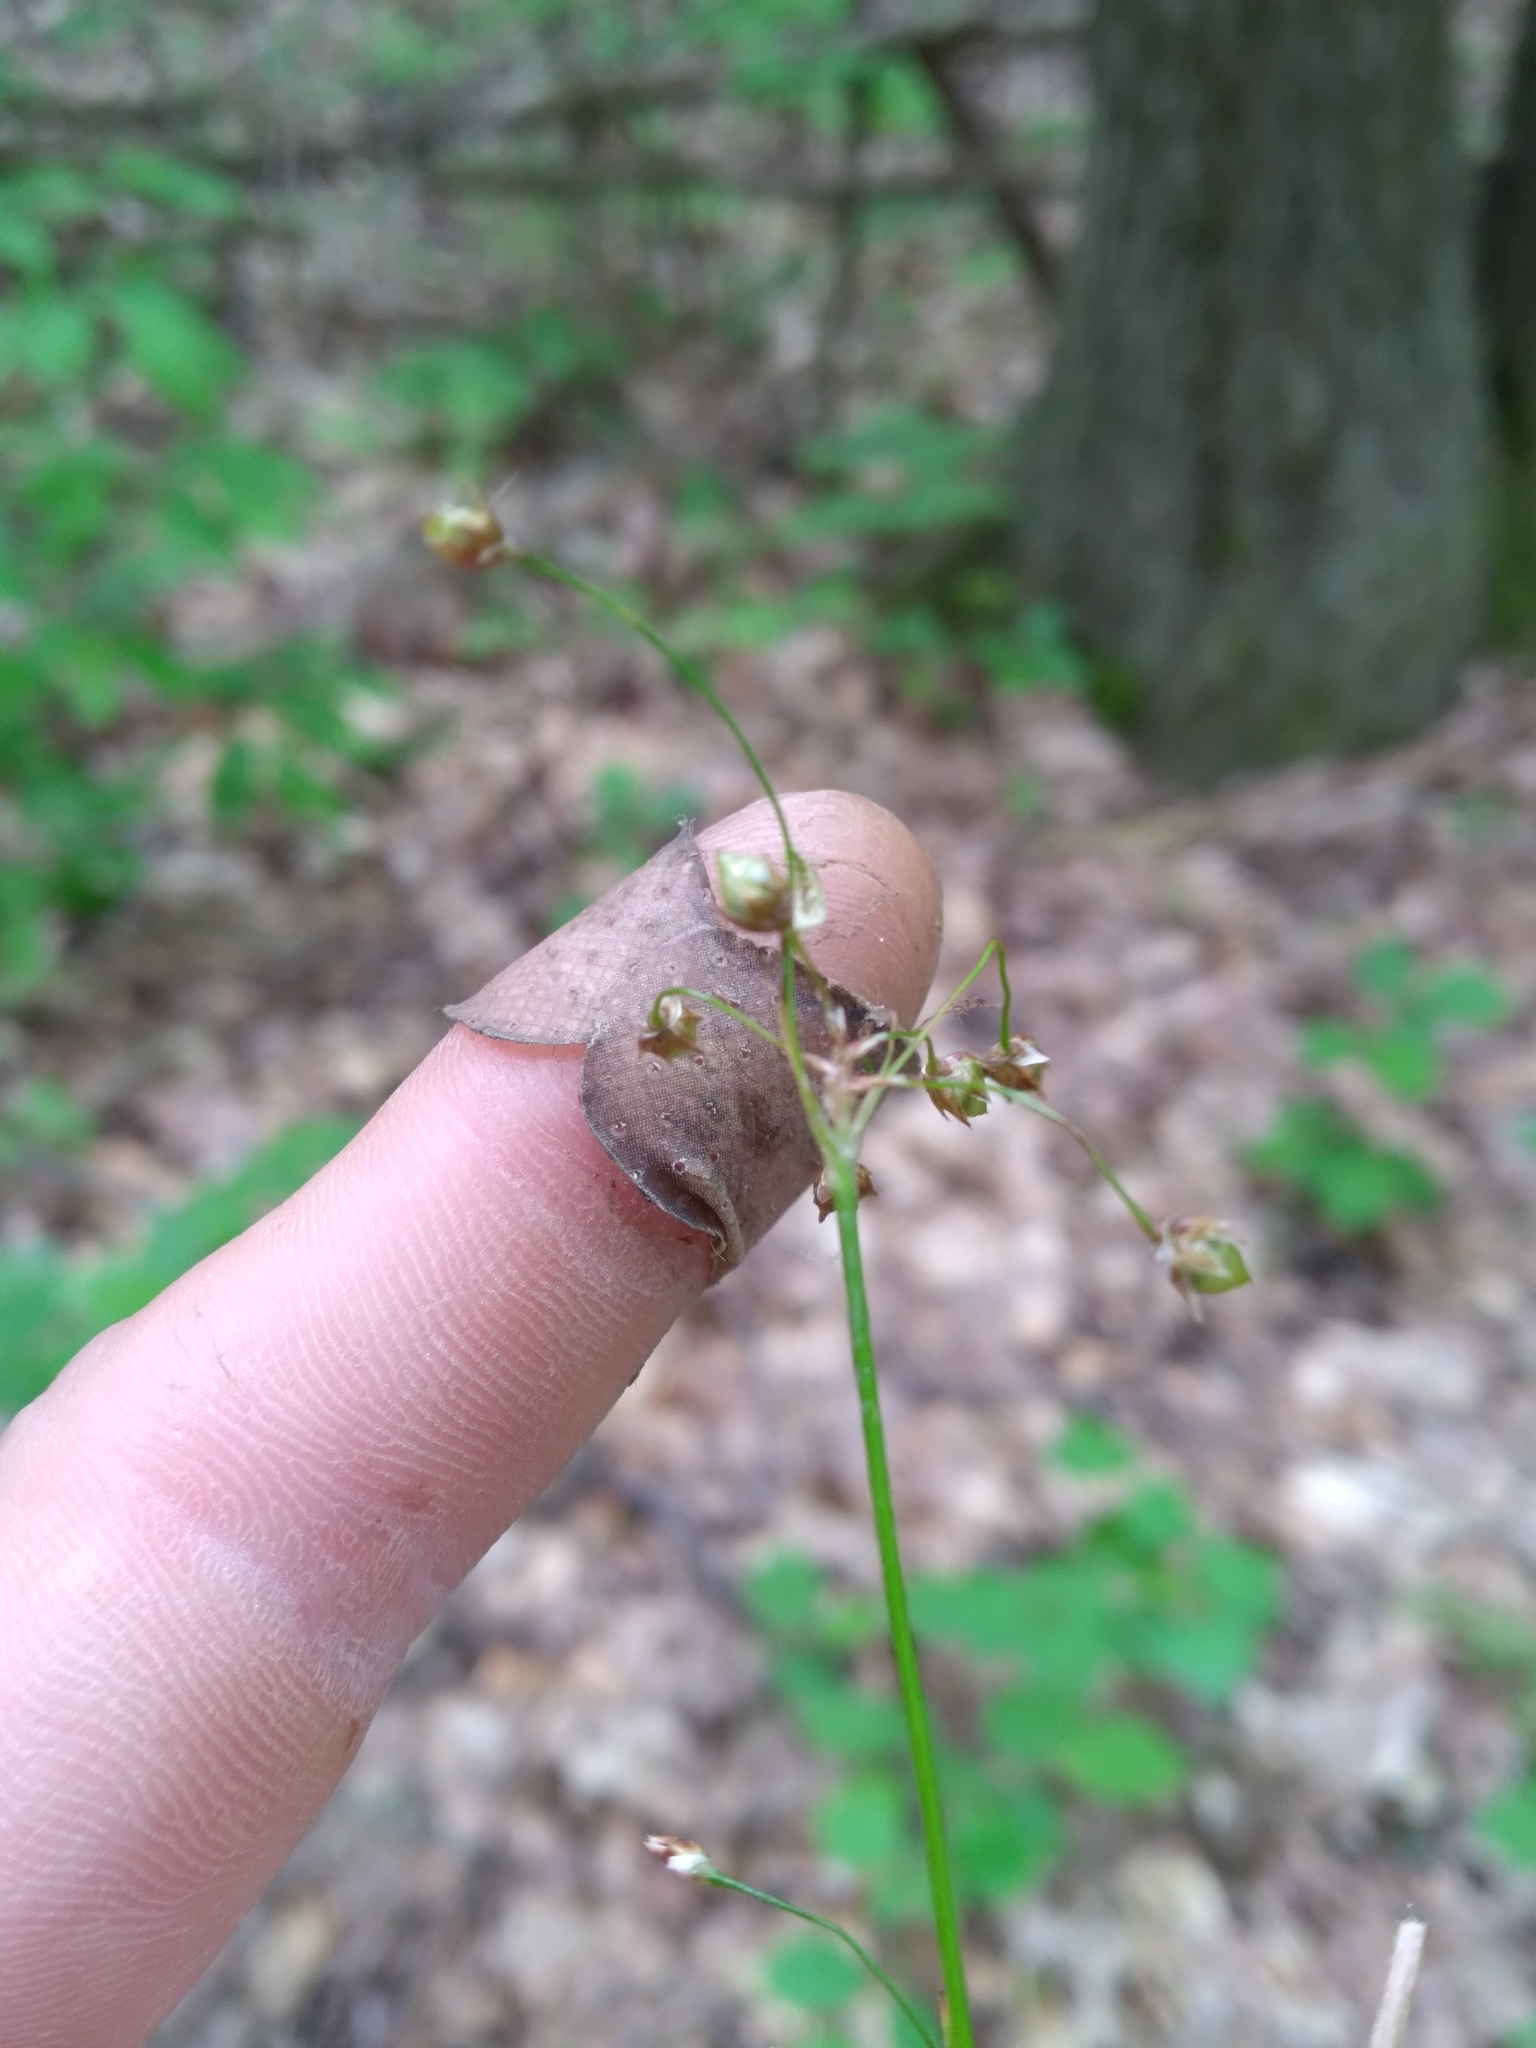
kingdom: Plantae
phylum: Tracheophyta
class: Liliopsida
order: Poales
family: Juncaceae
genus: Luzula
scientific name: Luzula acuminata
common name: Hairy woodrush
